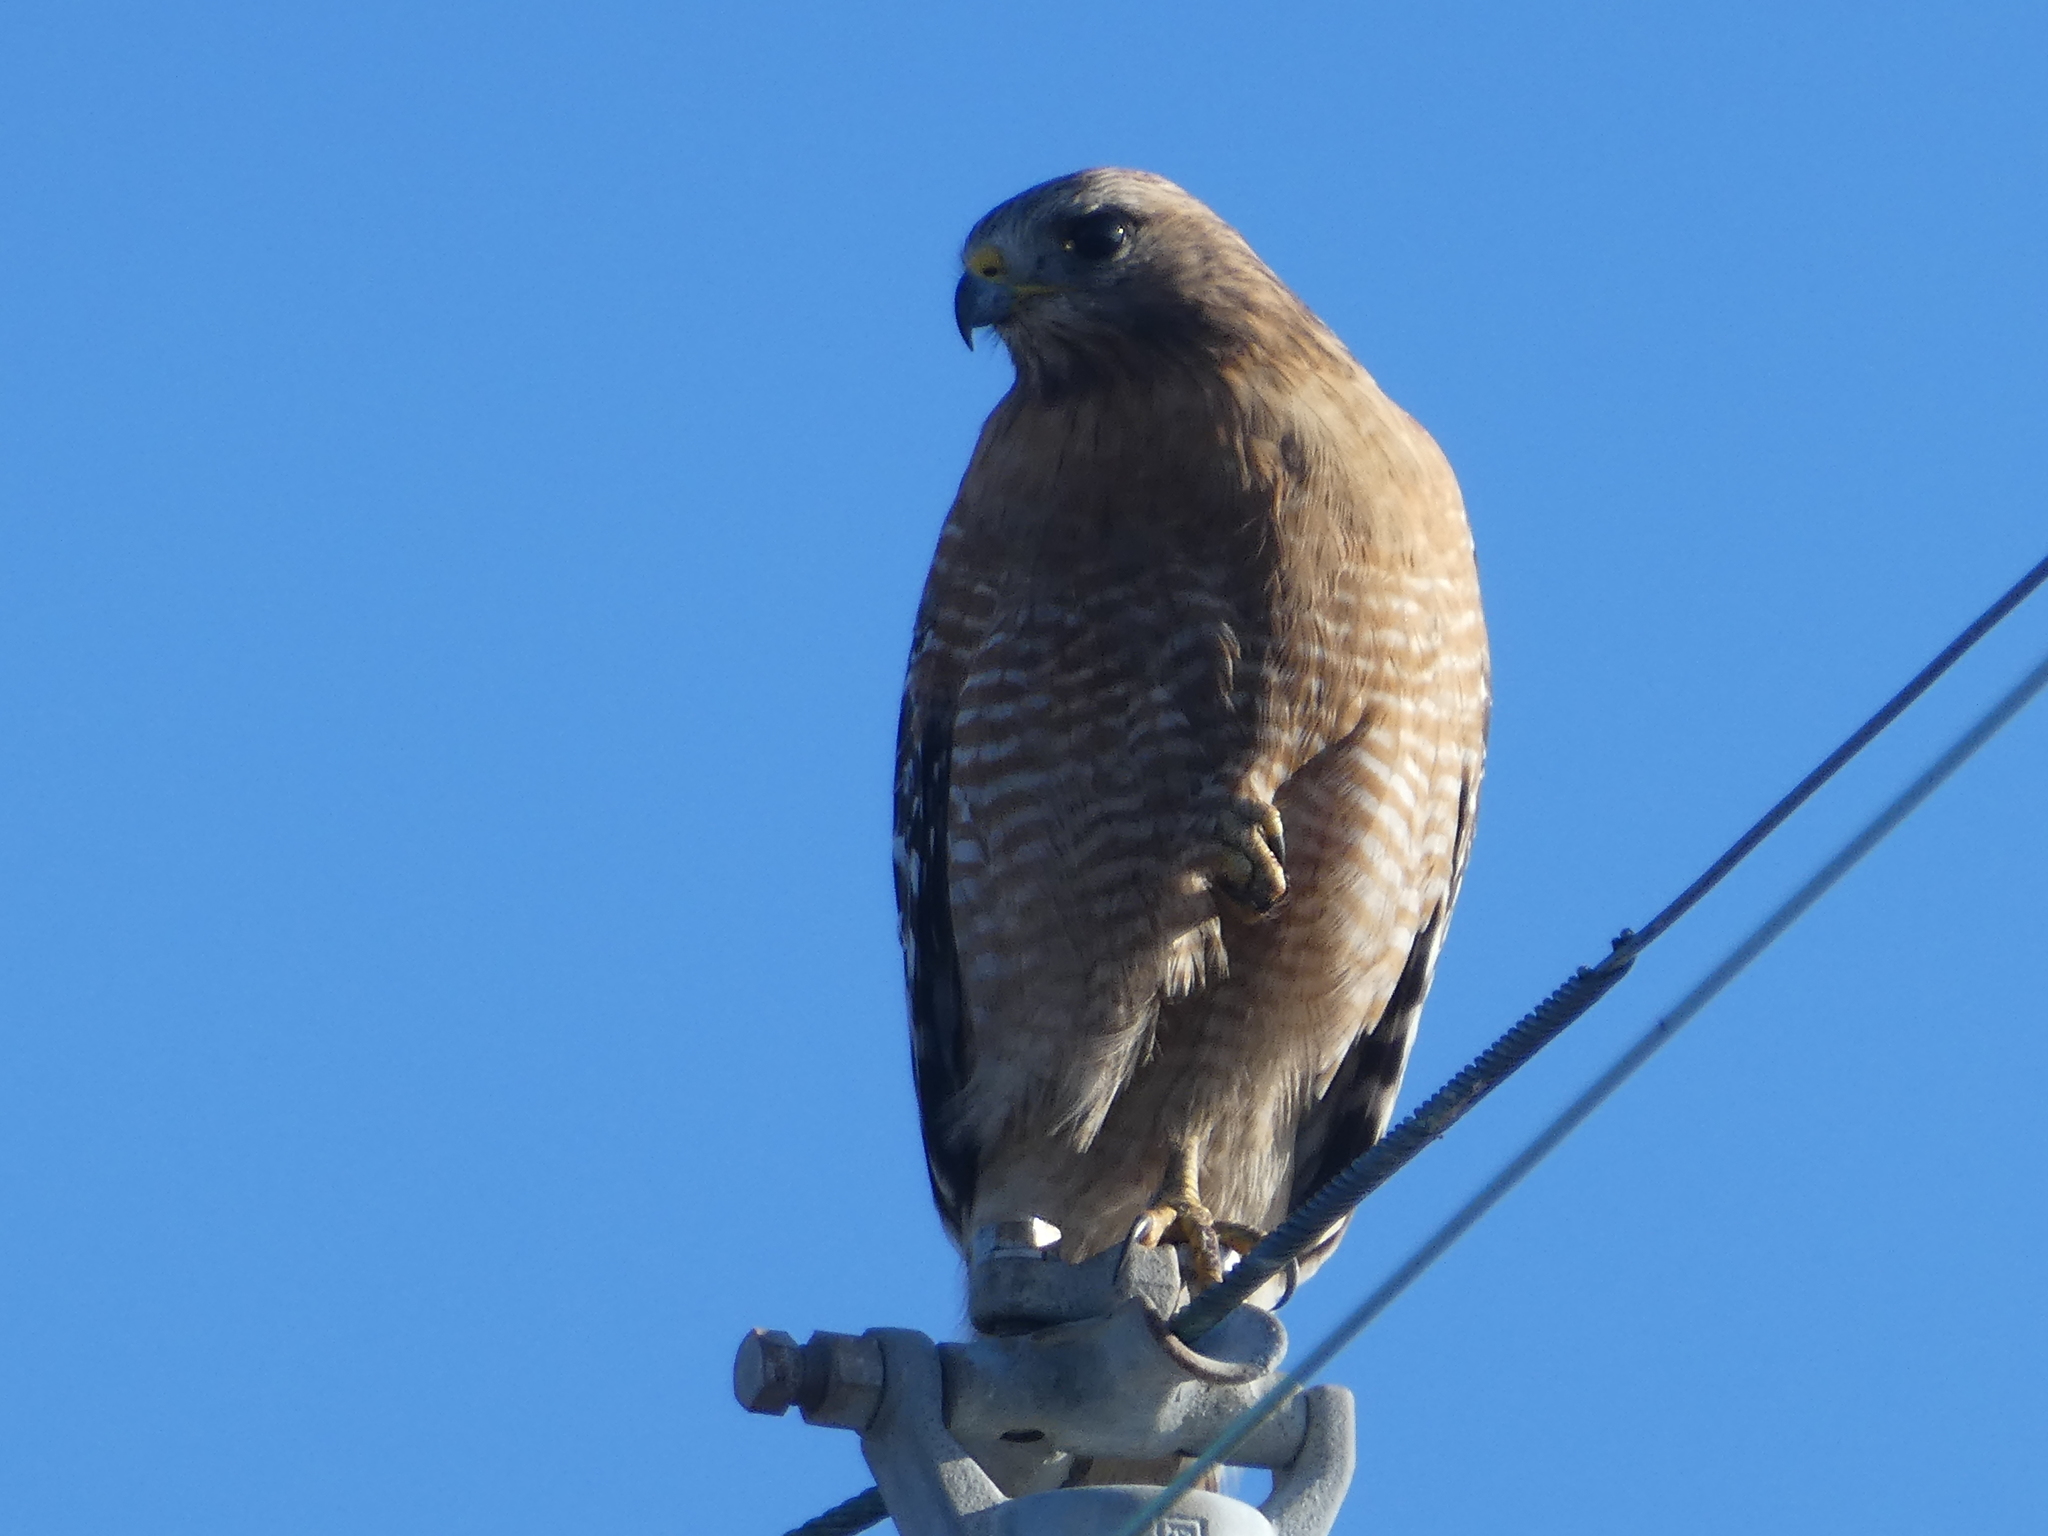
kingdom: Animalia
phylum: Chordata
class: Aves
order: Accipitriformes
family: Accipitridae
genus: Buteo
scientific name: Buteo lineatus
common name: Red-shouldered hawk
